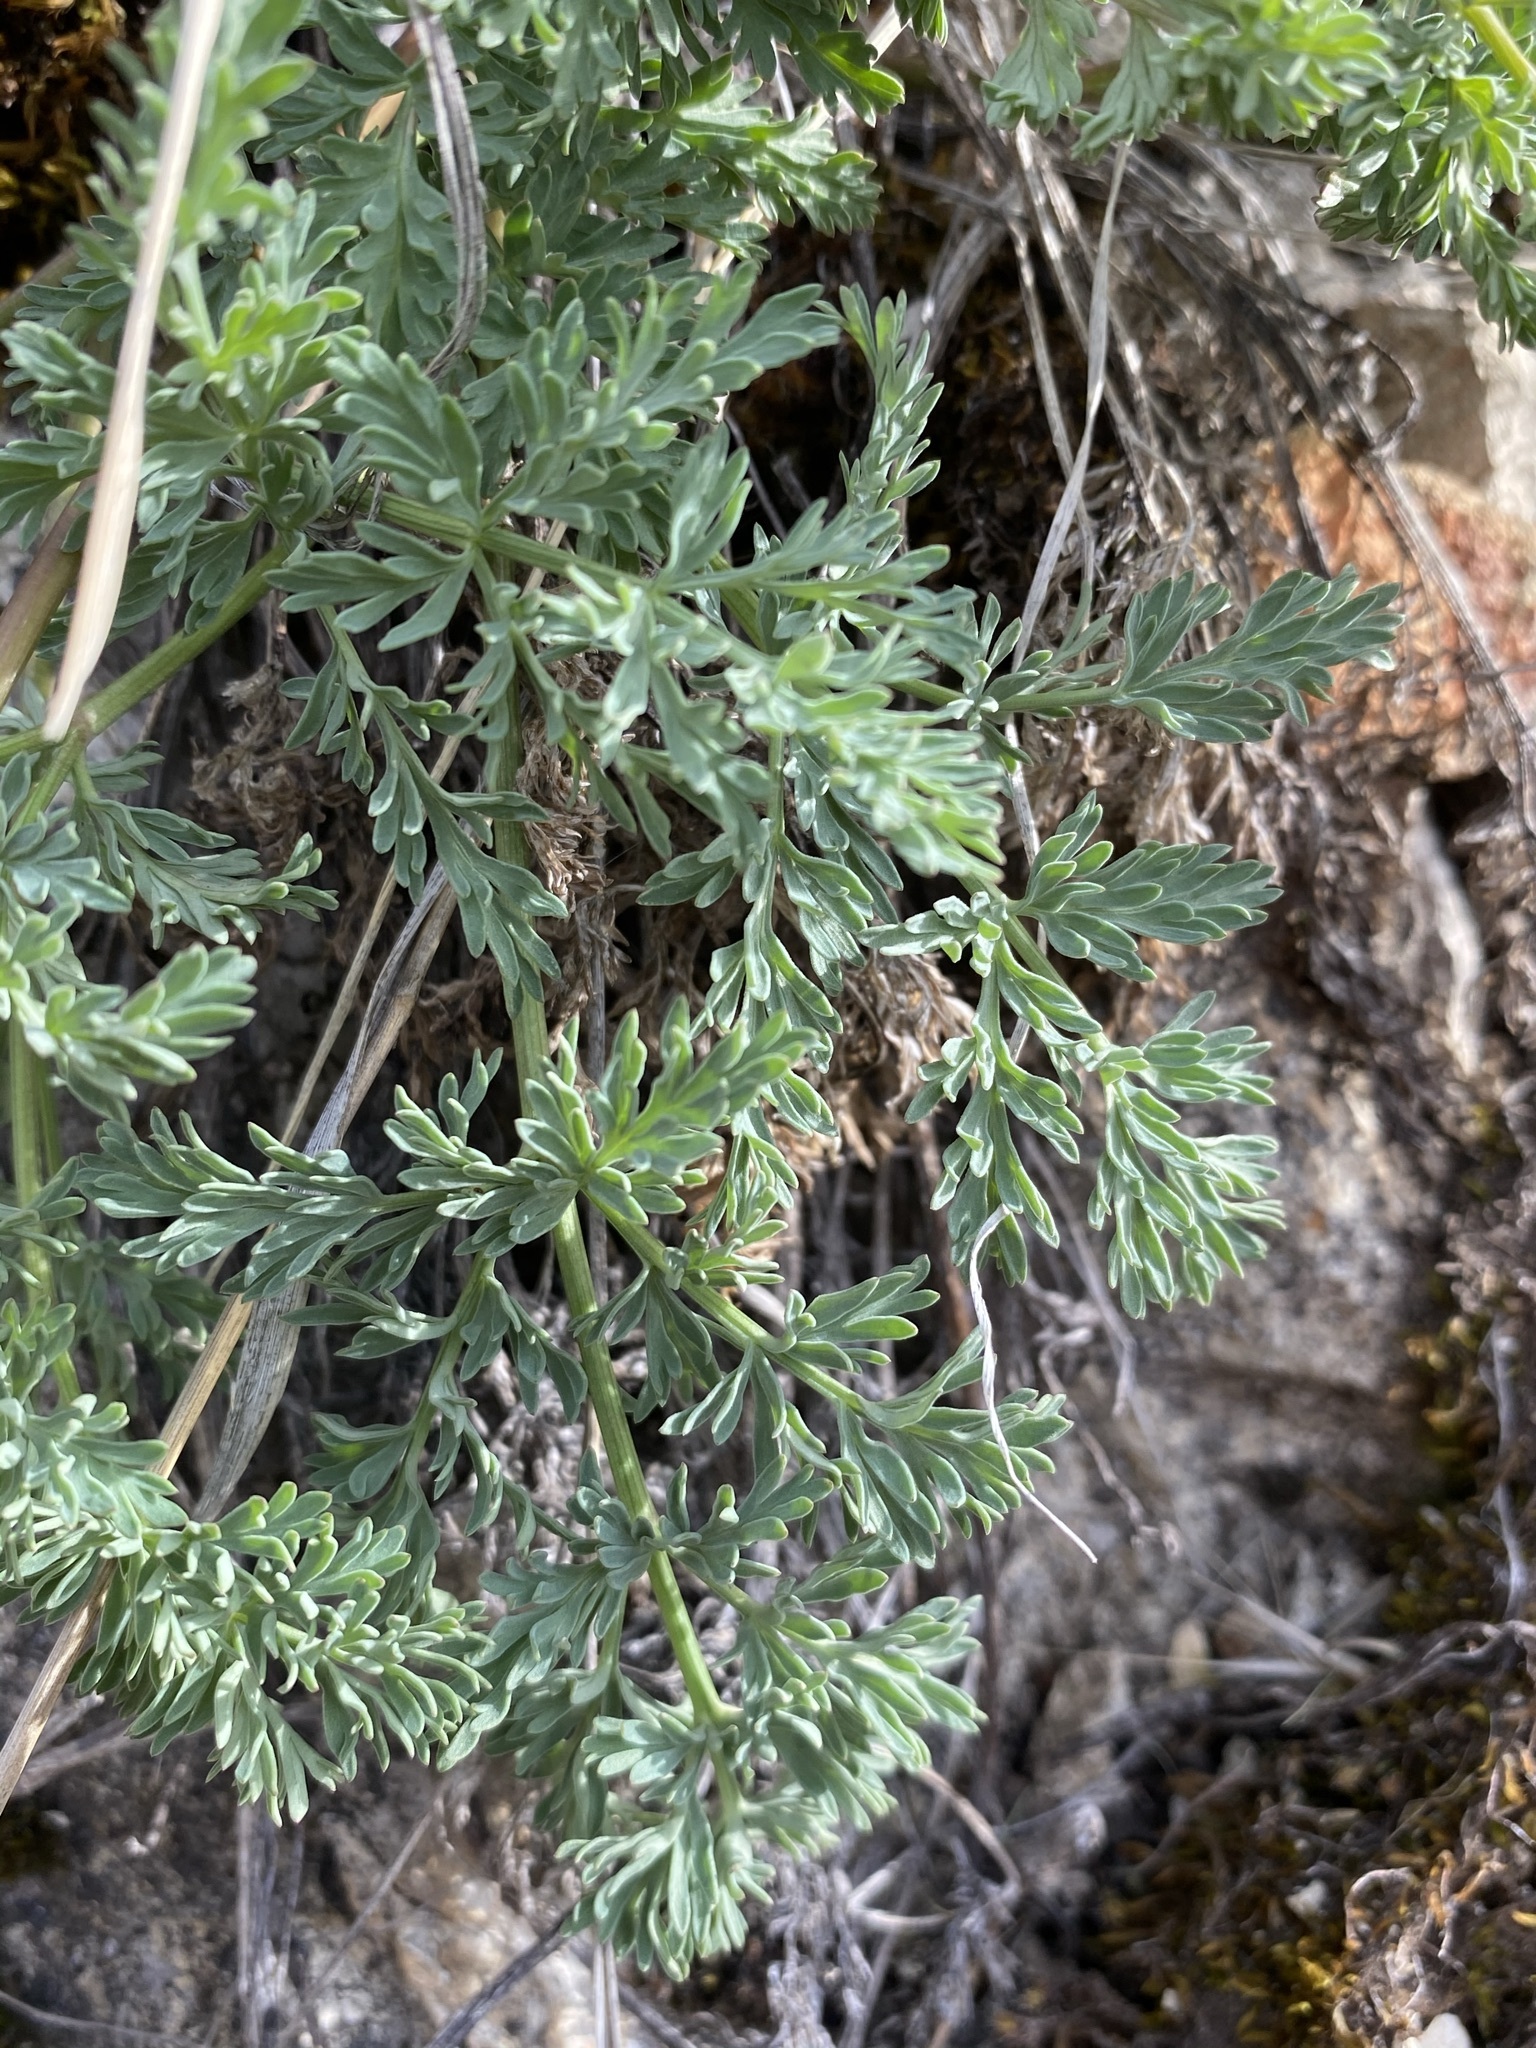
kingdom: Plantae
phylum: Tracheophyta
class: Magnoliopsida
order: Apiales
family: Apiaceae
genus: Lomatium
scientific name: Lomatium donnellii
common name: Donnell's biscuitroot
